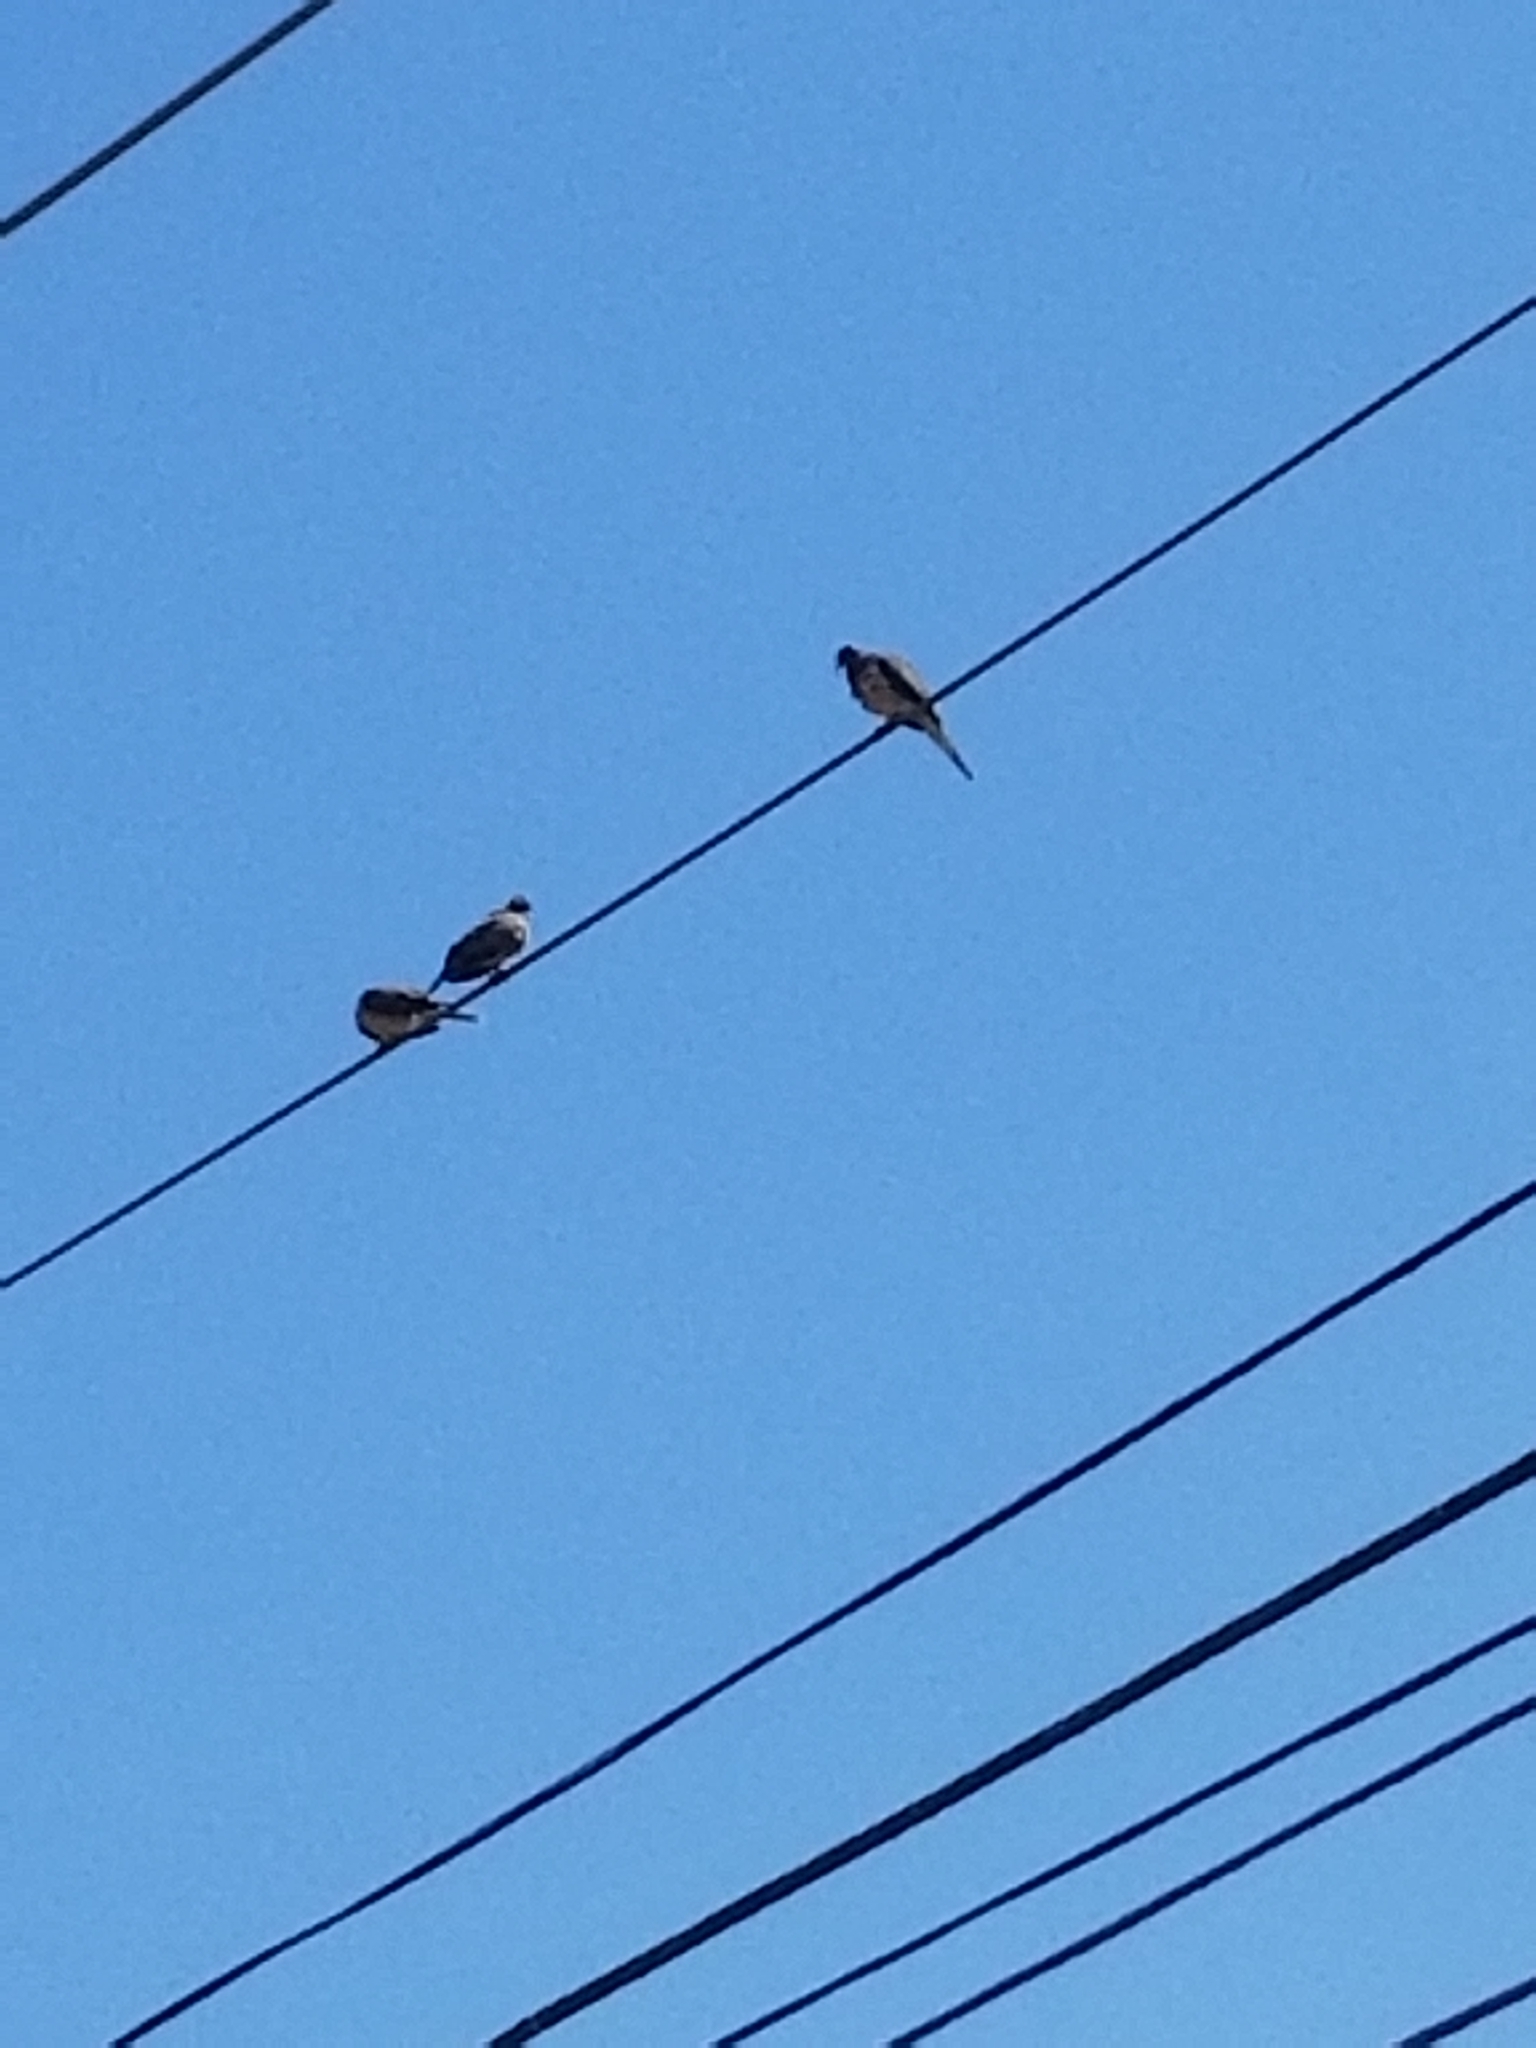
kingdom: Animalia
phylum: Chordata
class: Aves
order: Columbiformes
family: Columbidae
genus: Zenaida
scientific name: Zenaida macroura
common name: Mourning dove
